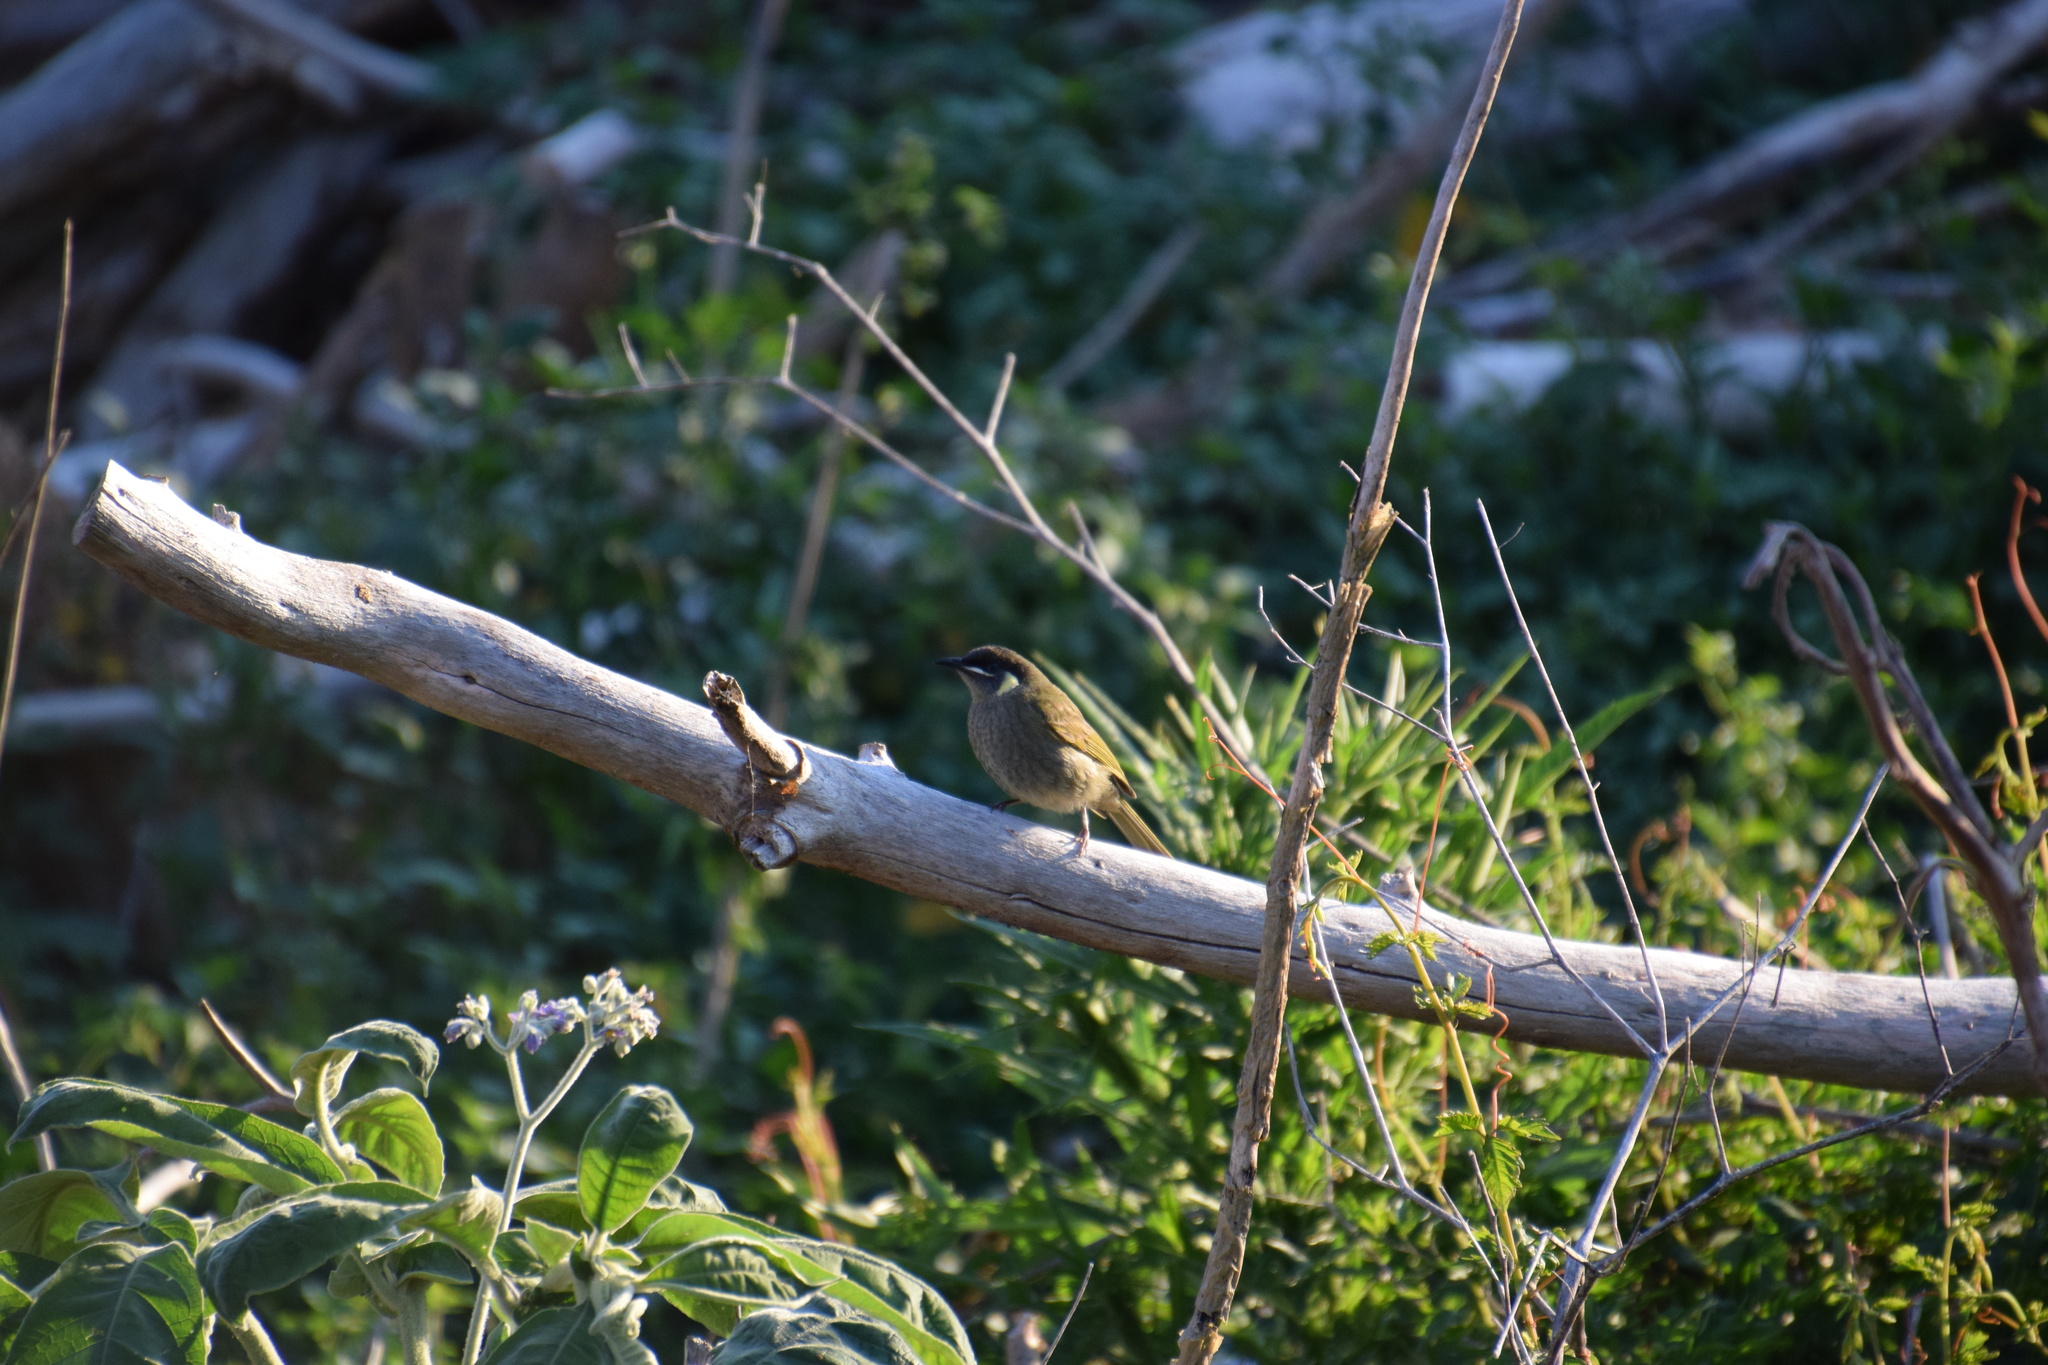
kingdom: Animalia
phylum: Chordata
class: Aves
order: Passeriformes
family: Meliphagidae
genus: Meliphaga
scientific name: Meliphaga lewinii
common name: Lewin's honeyeater
